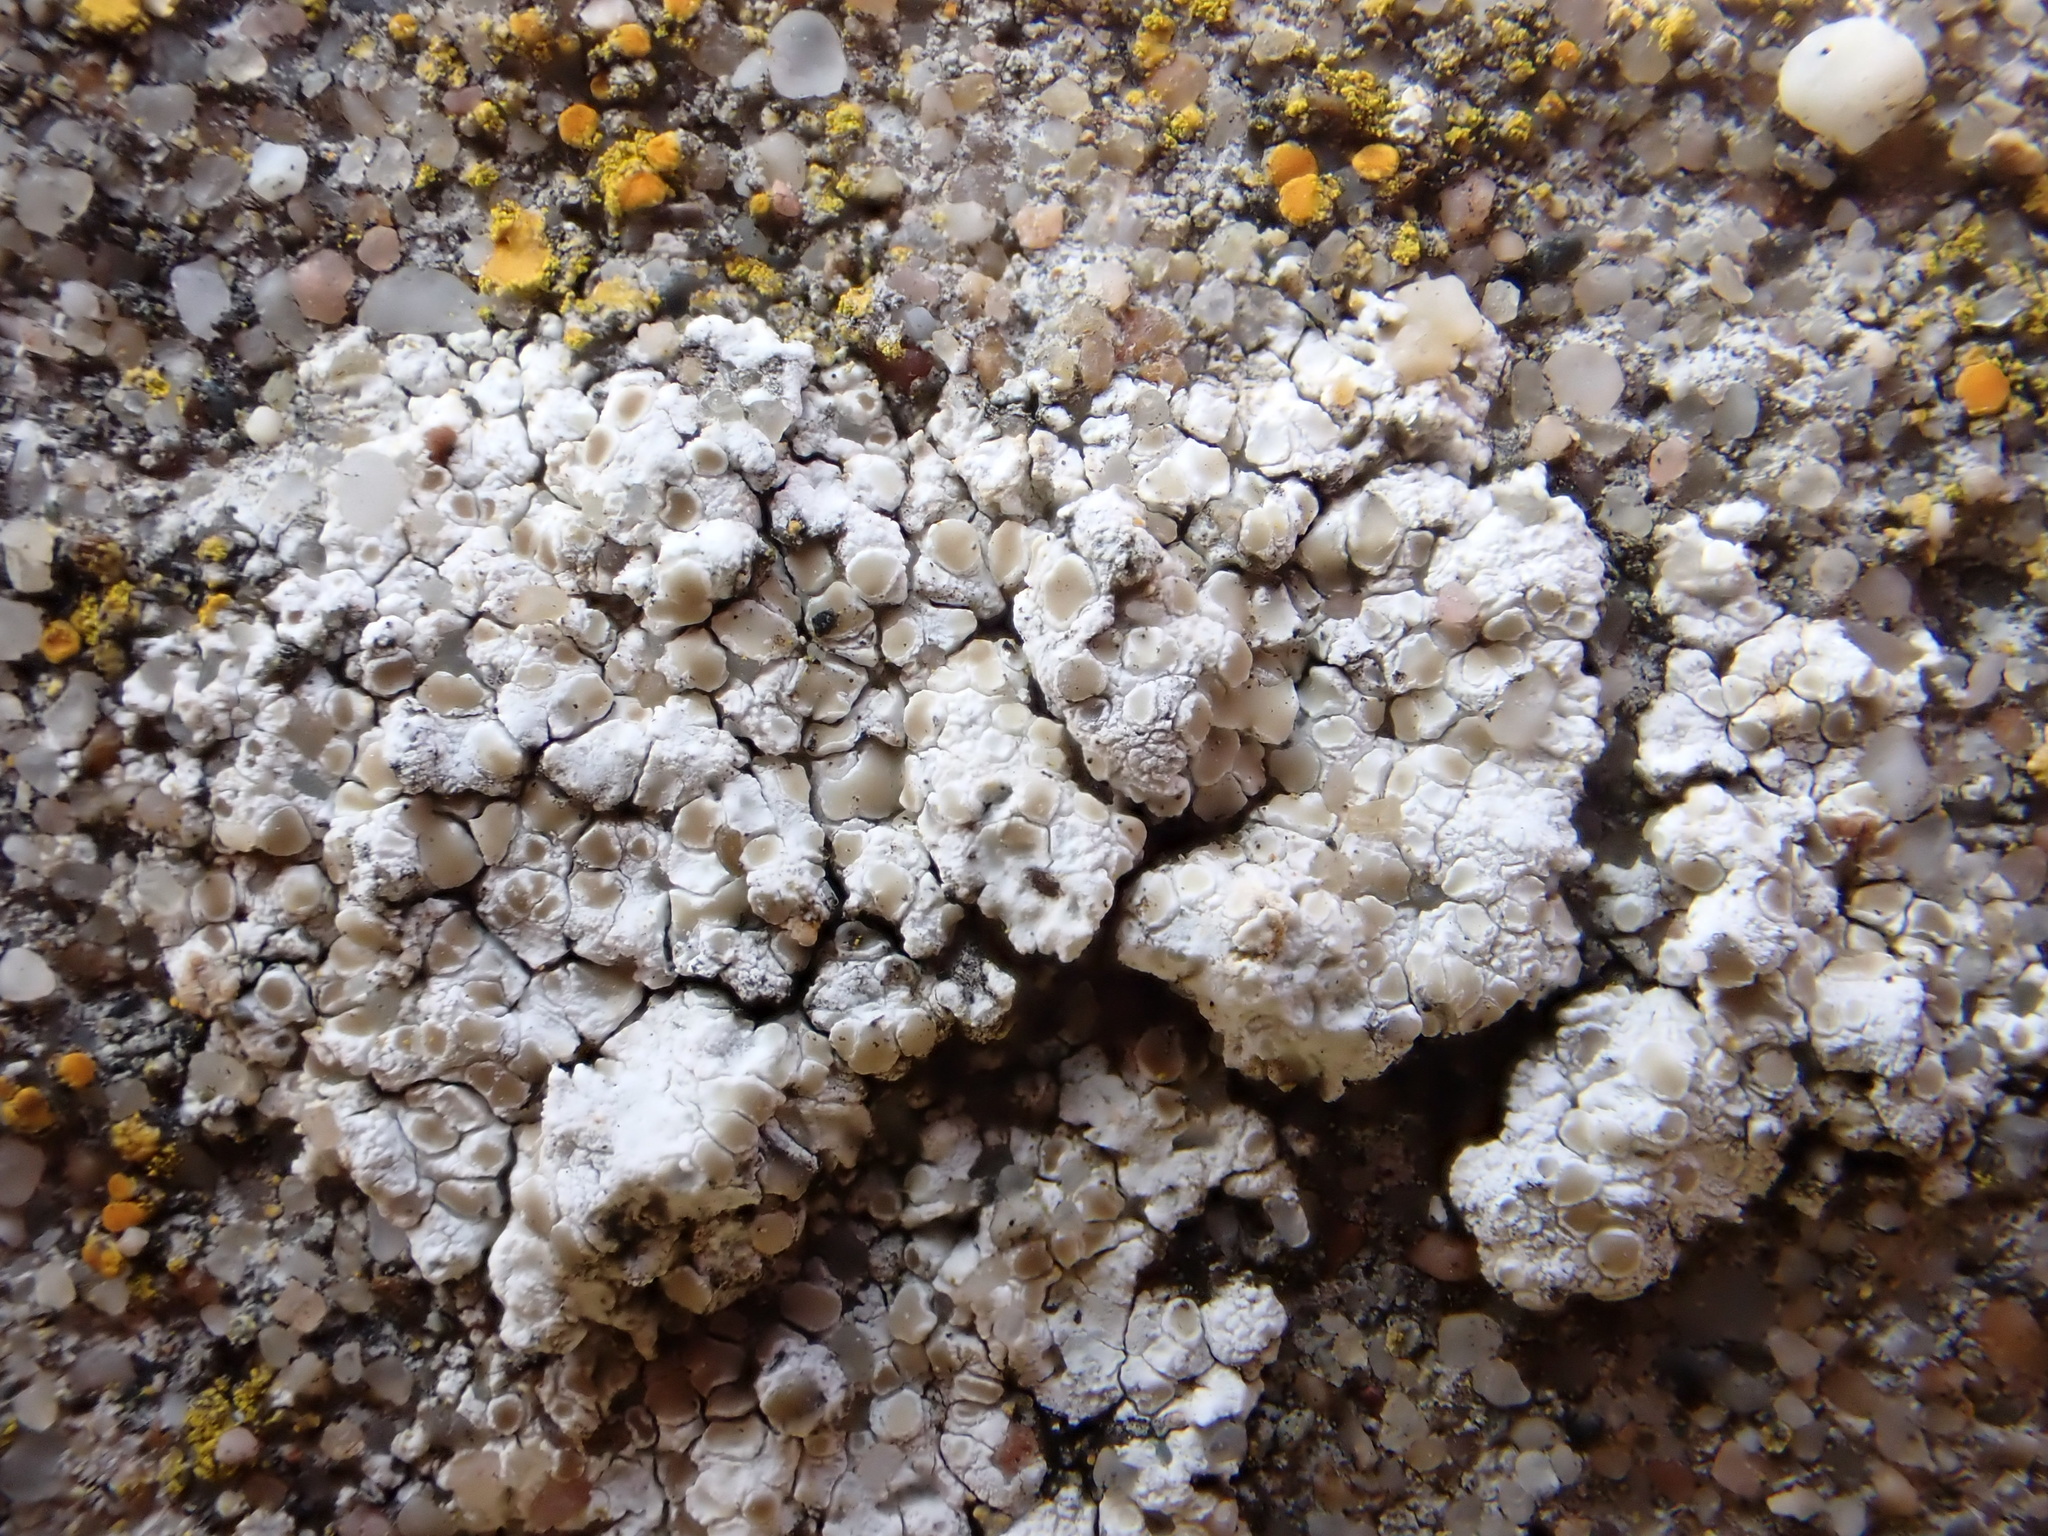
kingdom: Fungi
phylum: Ascomycota
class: Lecanoromycetes
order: Lecanorales
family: Lecanoraceae
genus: Polyozosia
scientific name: Polyozosia albescens
